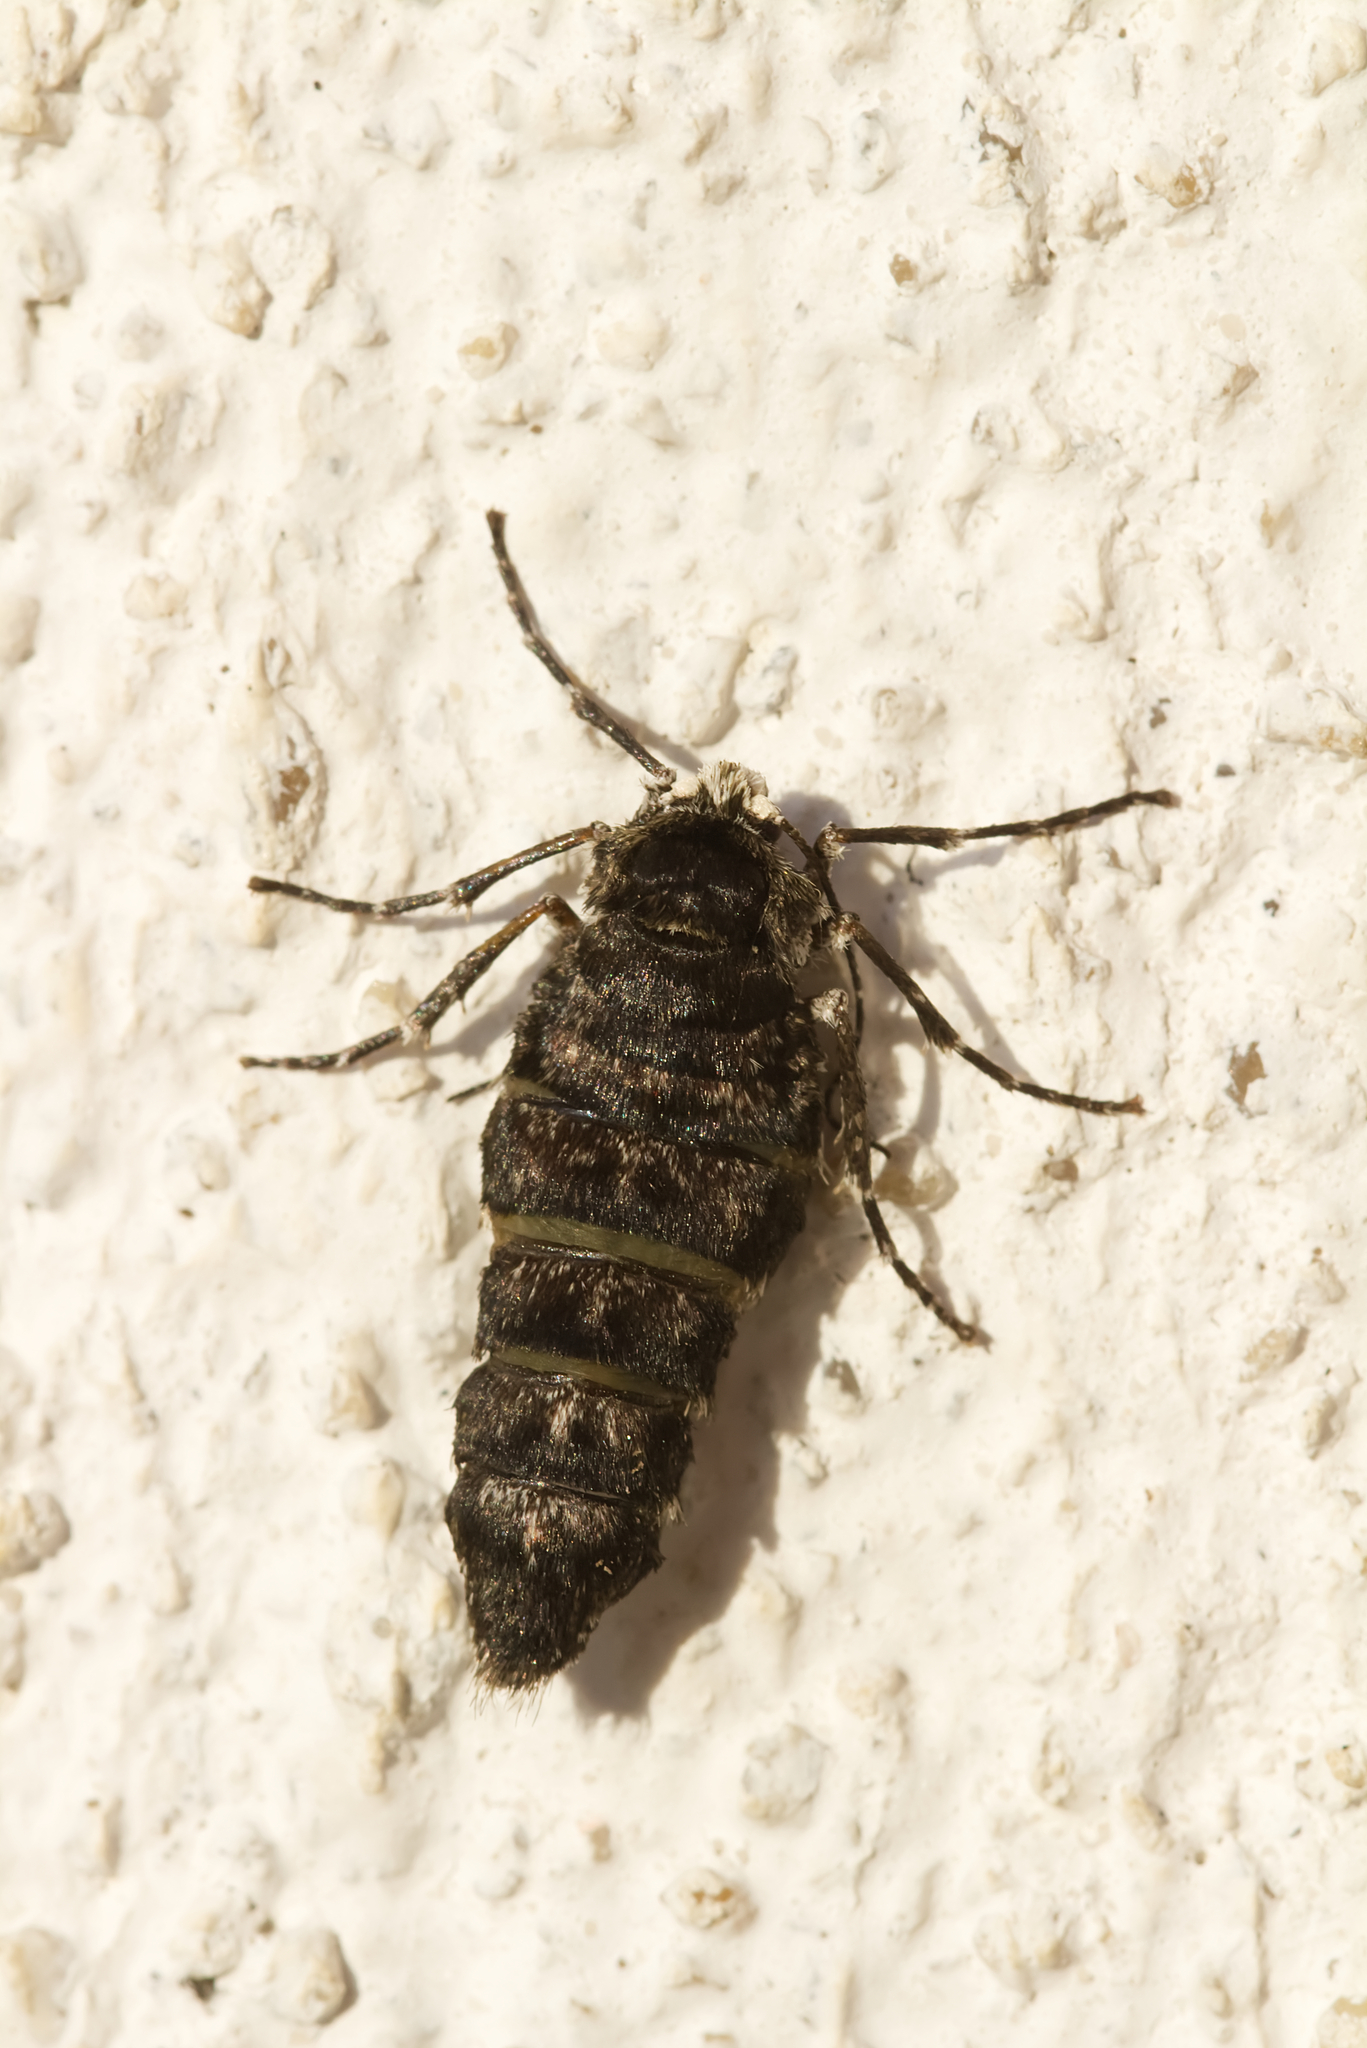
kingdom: Animalia
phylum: Arthropoda
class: Insecta
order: Lepidoptera
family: Geometridae
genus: Phigalia
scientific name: Phigalia pilosaria
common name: Pale brindled beauty
